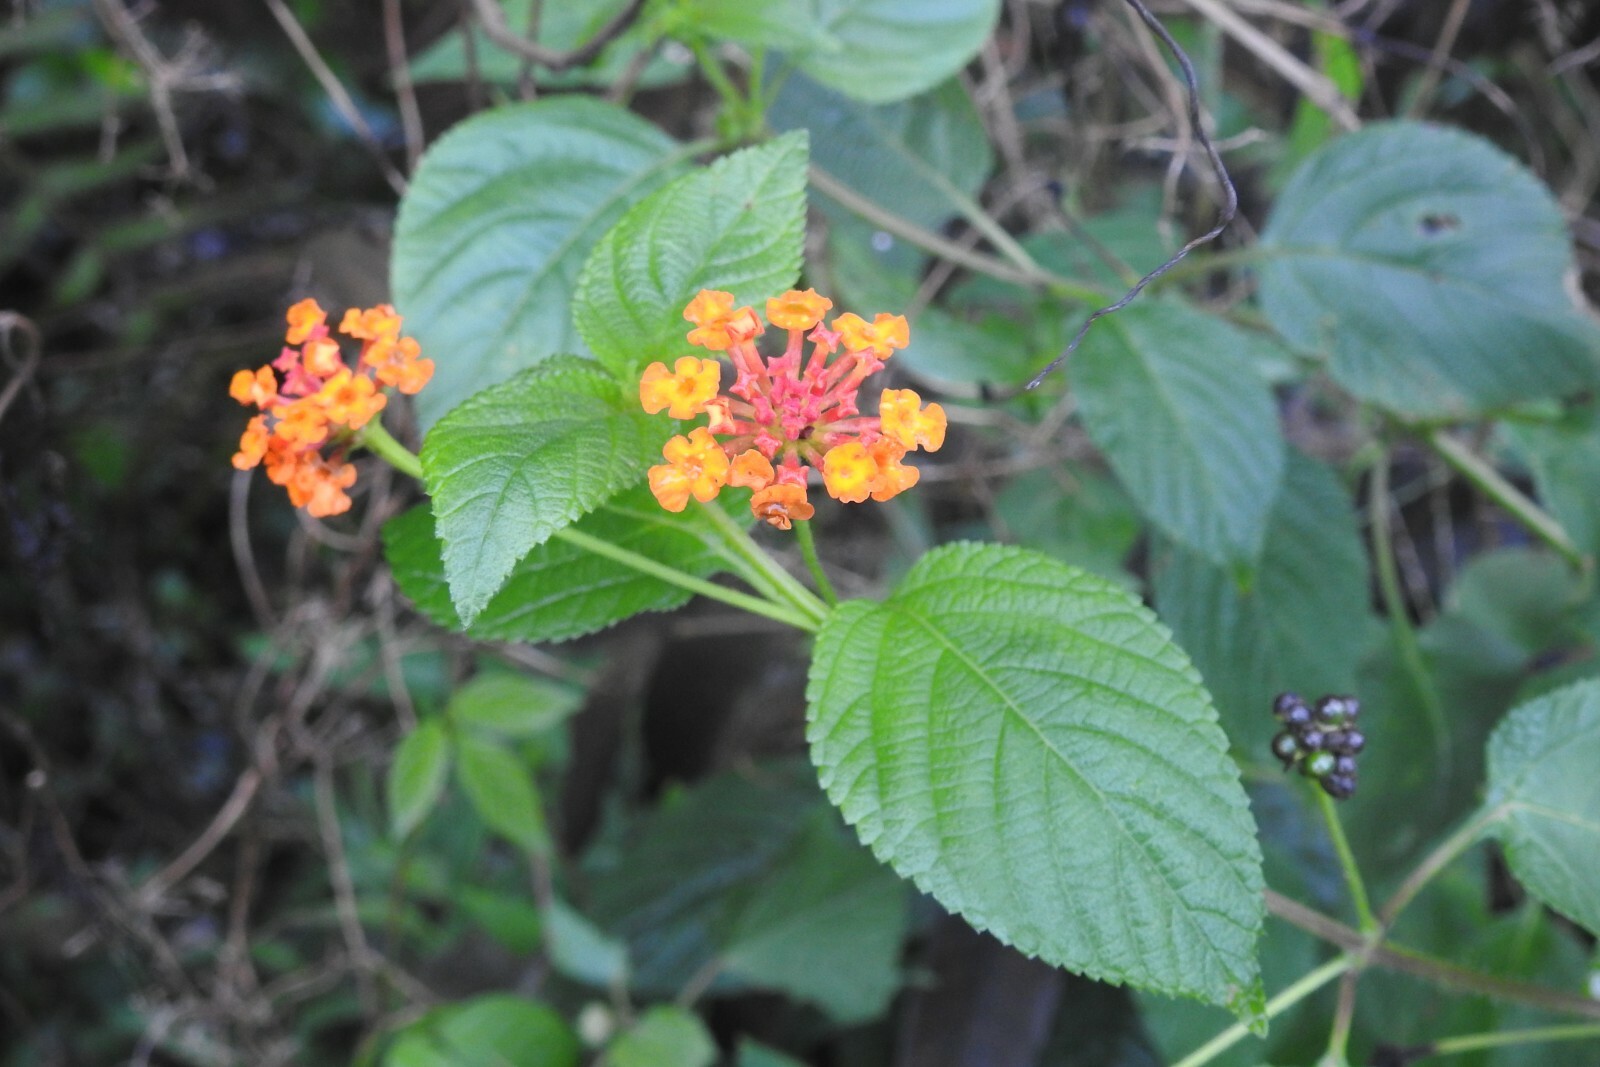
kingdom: Plantae
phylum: Tracheophyta
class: Magnoliopsida
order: Lamiales
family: Verbenaceae
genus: Lantana
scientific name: Lantana camara
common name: Lantana
